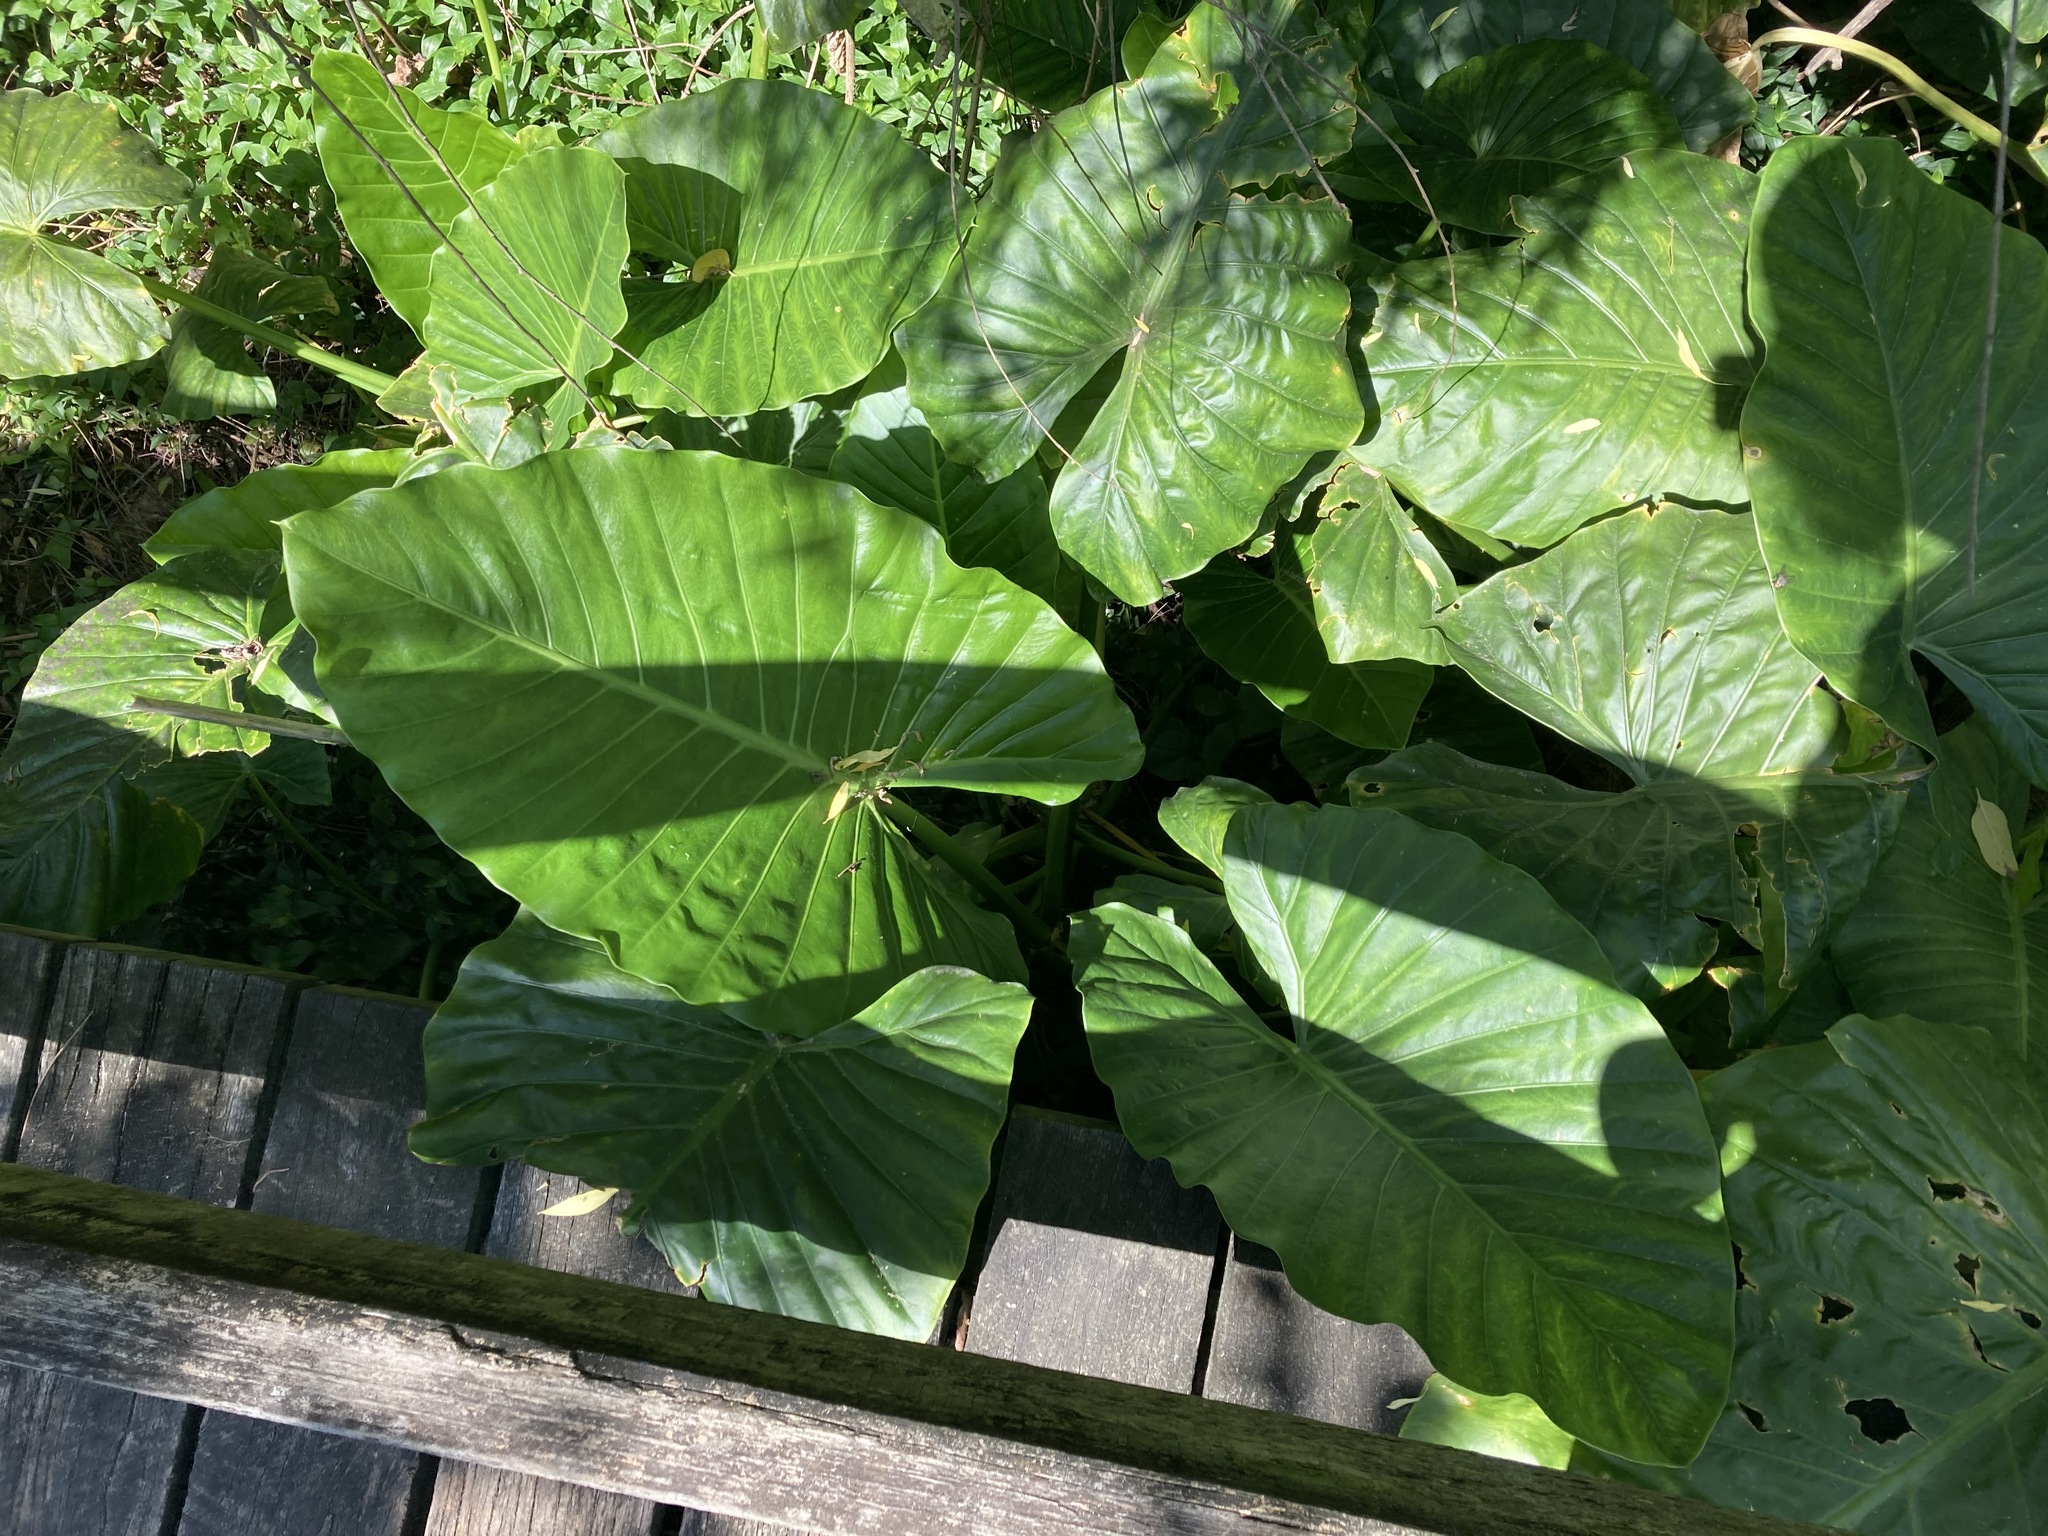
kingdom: Plantae
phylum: Tracheophyta
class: Liliopsida
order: Alismatales
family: Araceae
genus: Alocasia
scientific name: Alocasia brisbanensis
